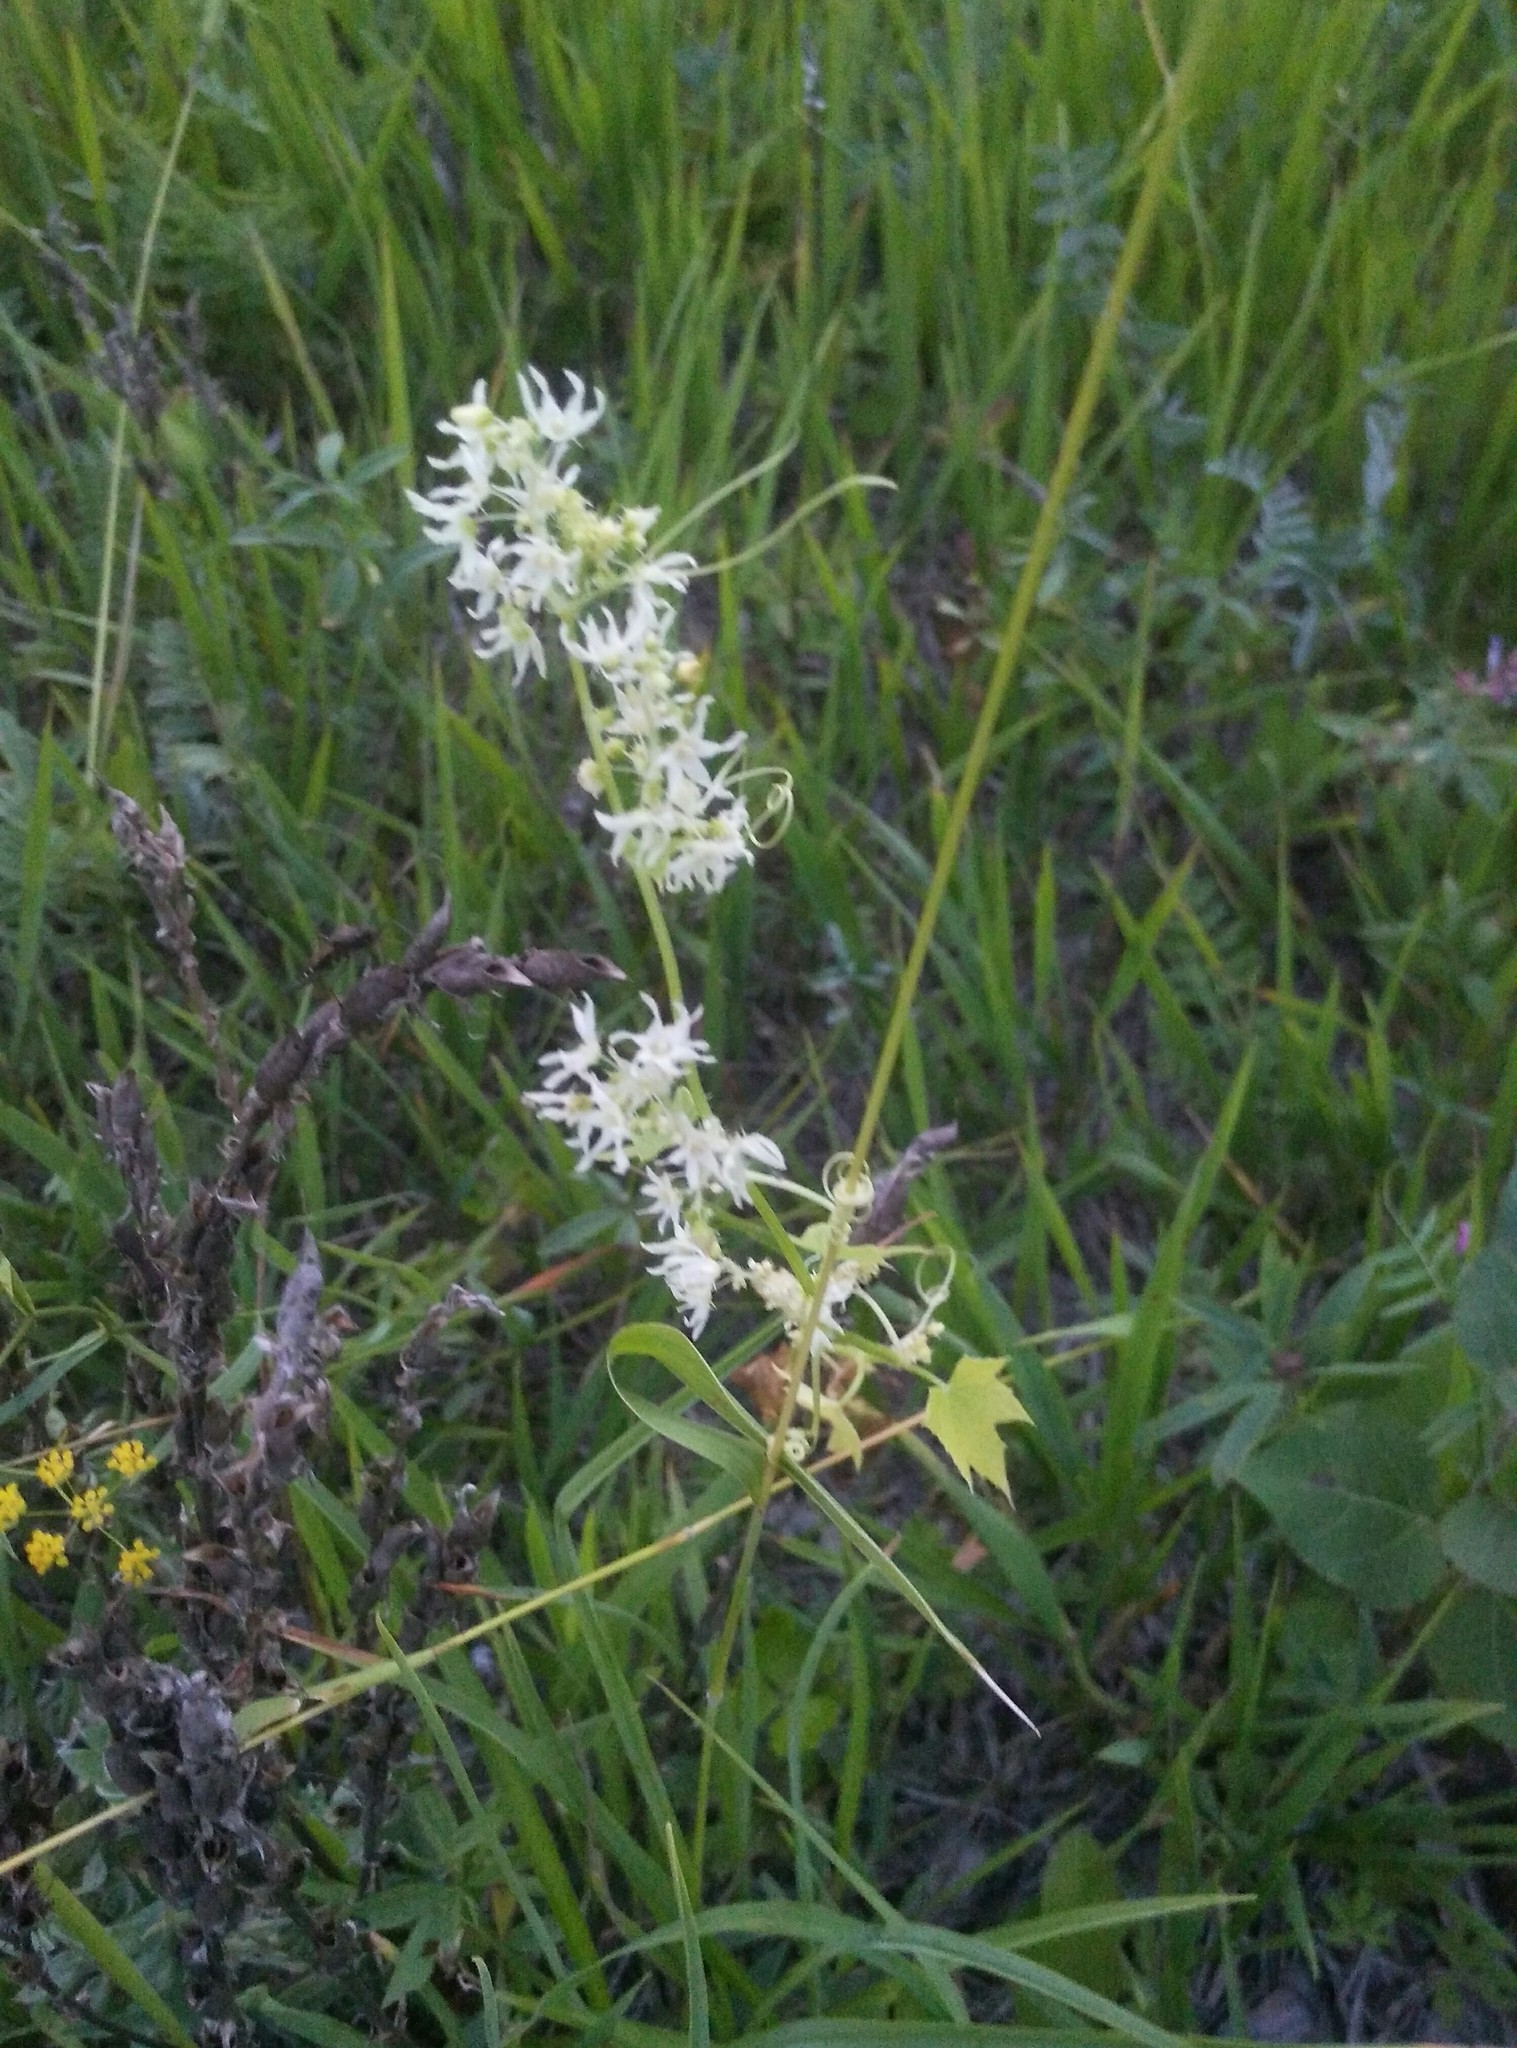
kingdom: Plantae
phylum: Tracheophyta
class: Magnoliopsida
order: Cucurbitales
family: Cucurbitaceae
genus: Echinocystis
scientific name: Echinocystis lobata
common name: Wild cucumber
